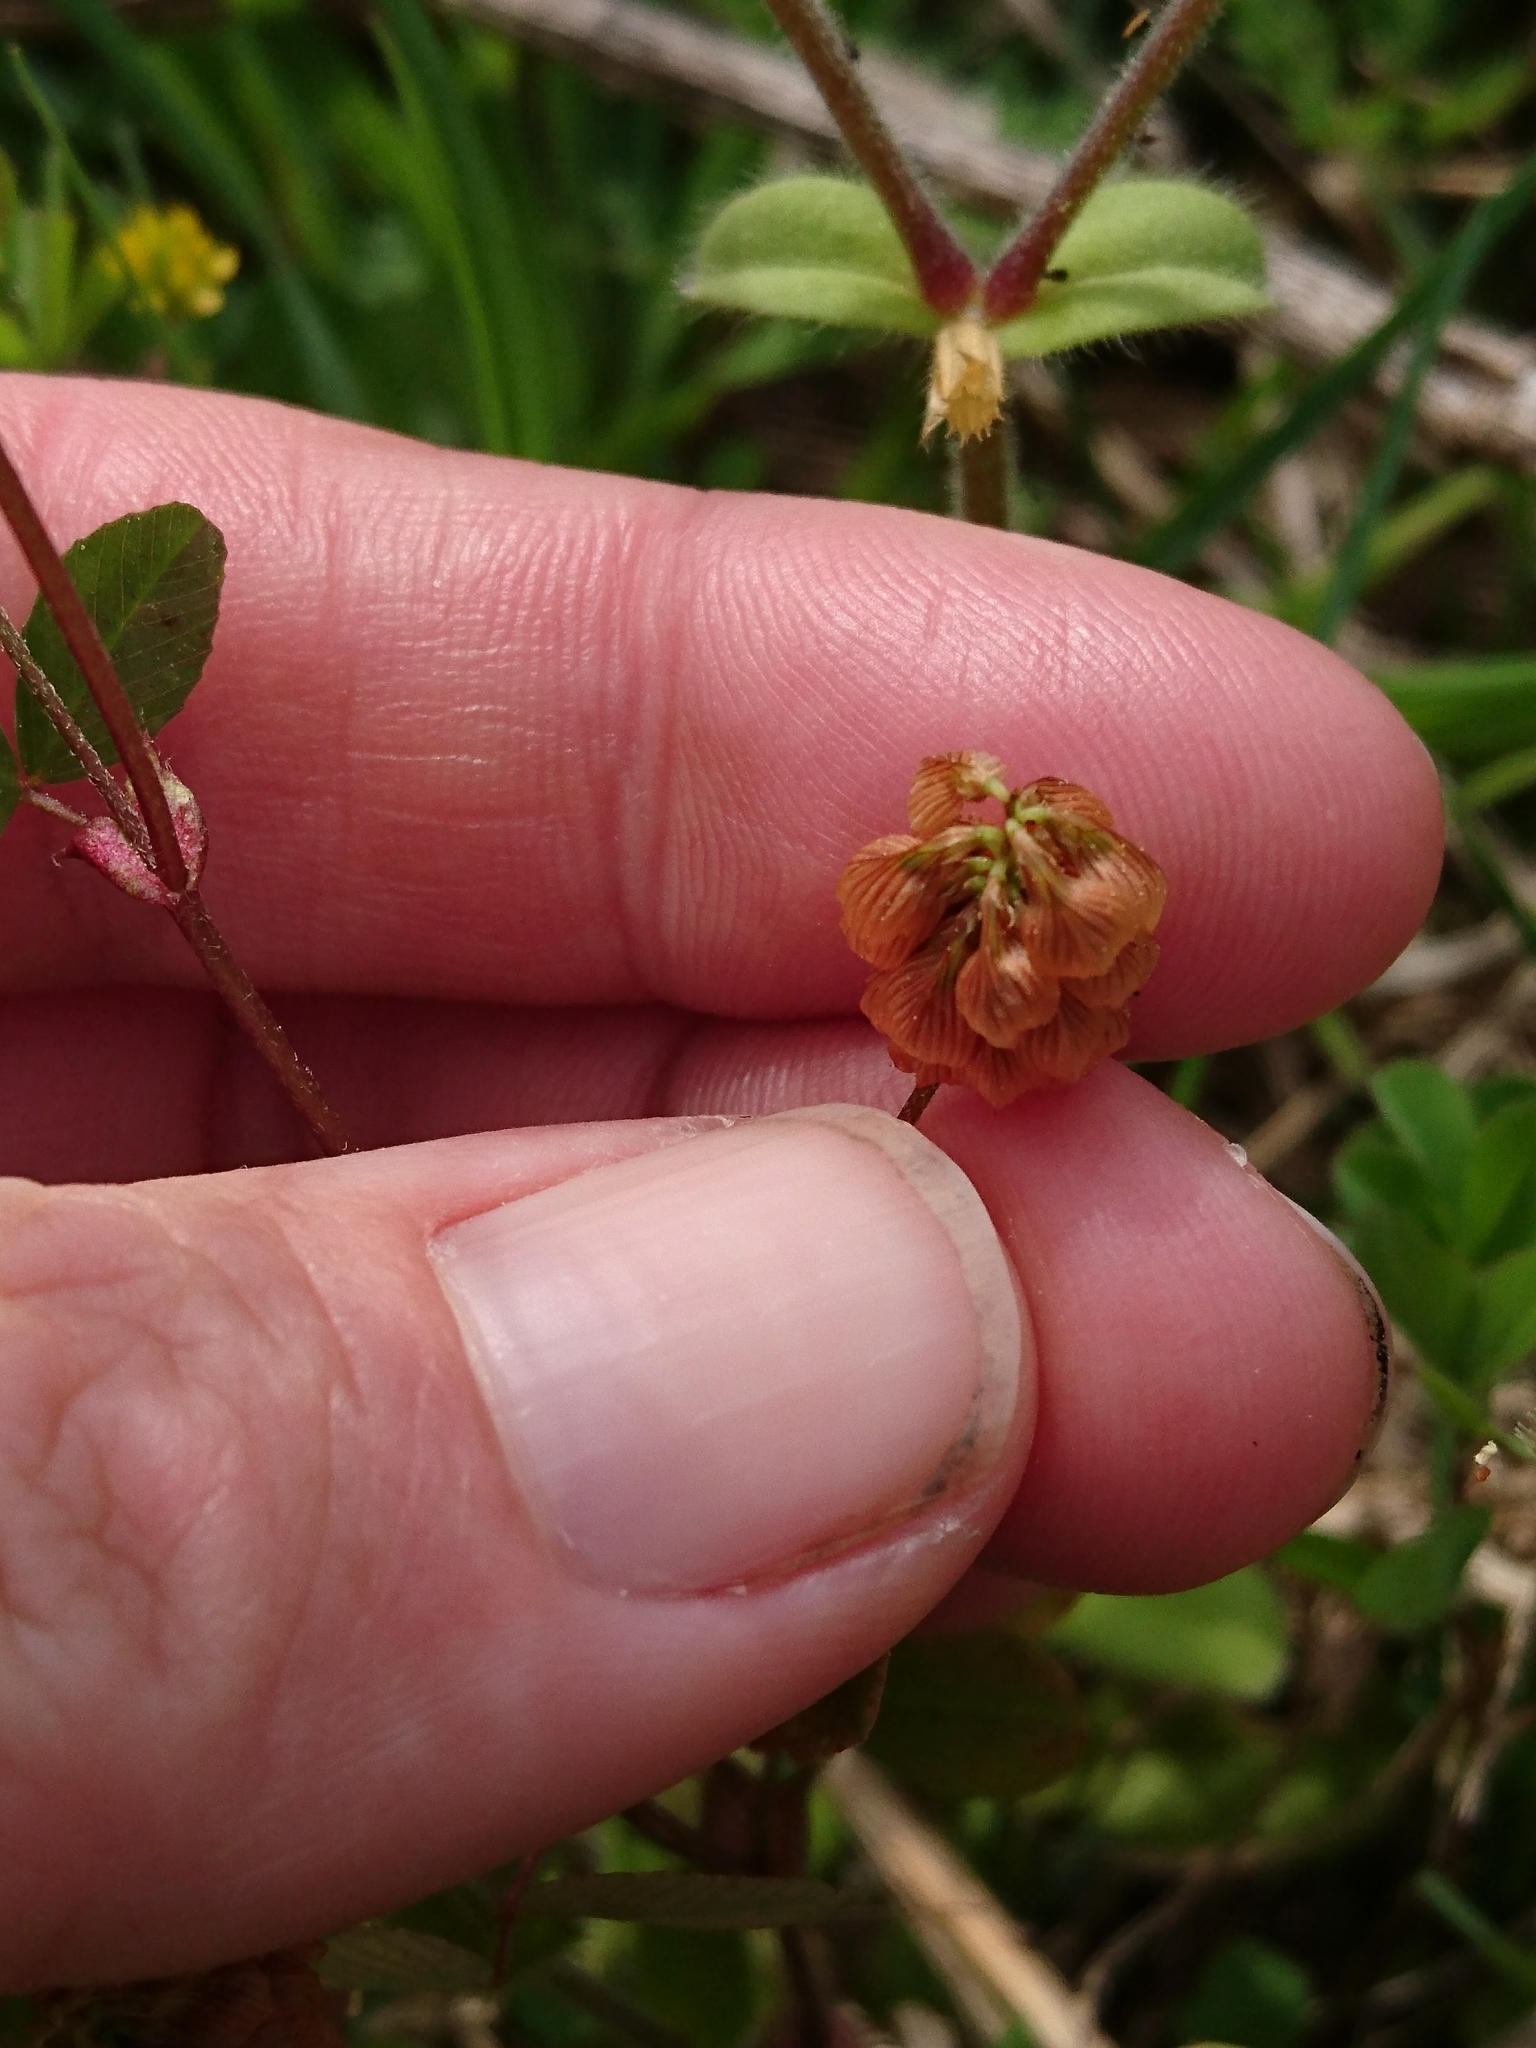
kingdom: Plantae
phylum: Tracheophyta
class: Magnoliopsida
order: Fabales
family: Fabaceae
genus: Trifolium
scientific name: Trifolium campestre
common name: Field clover
